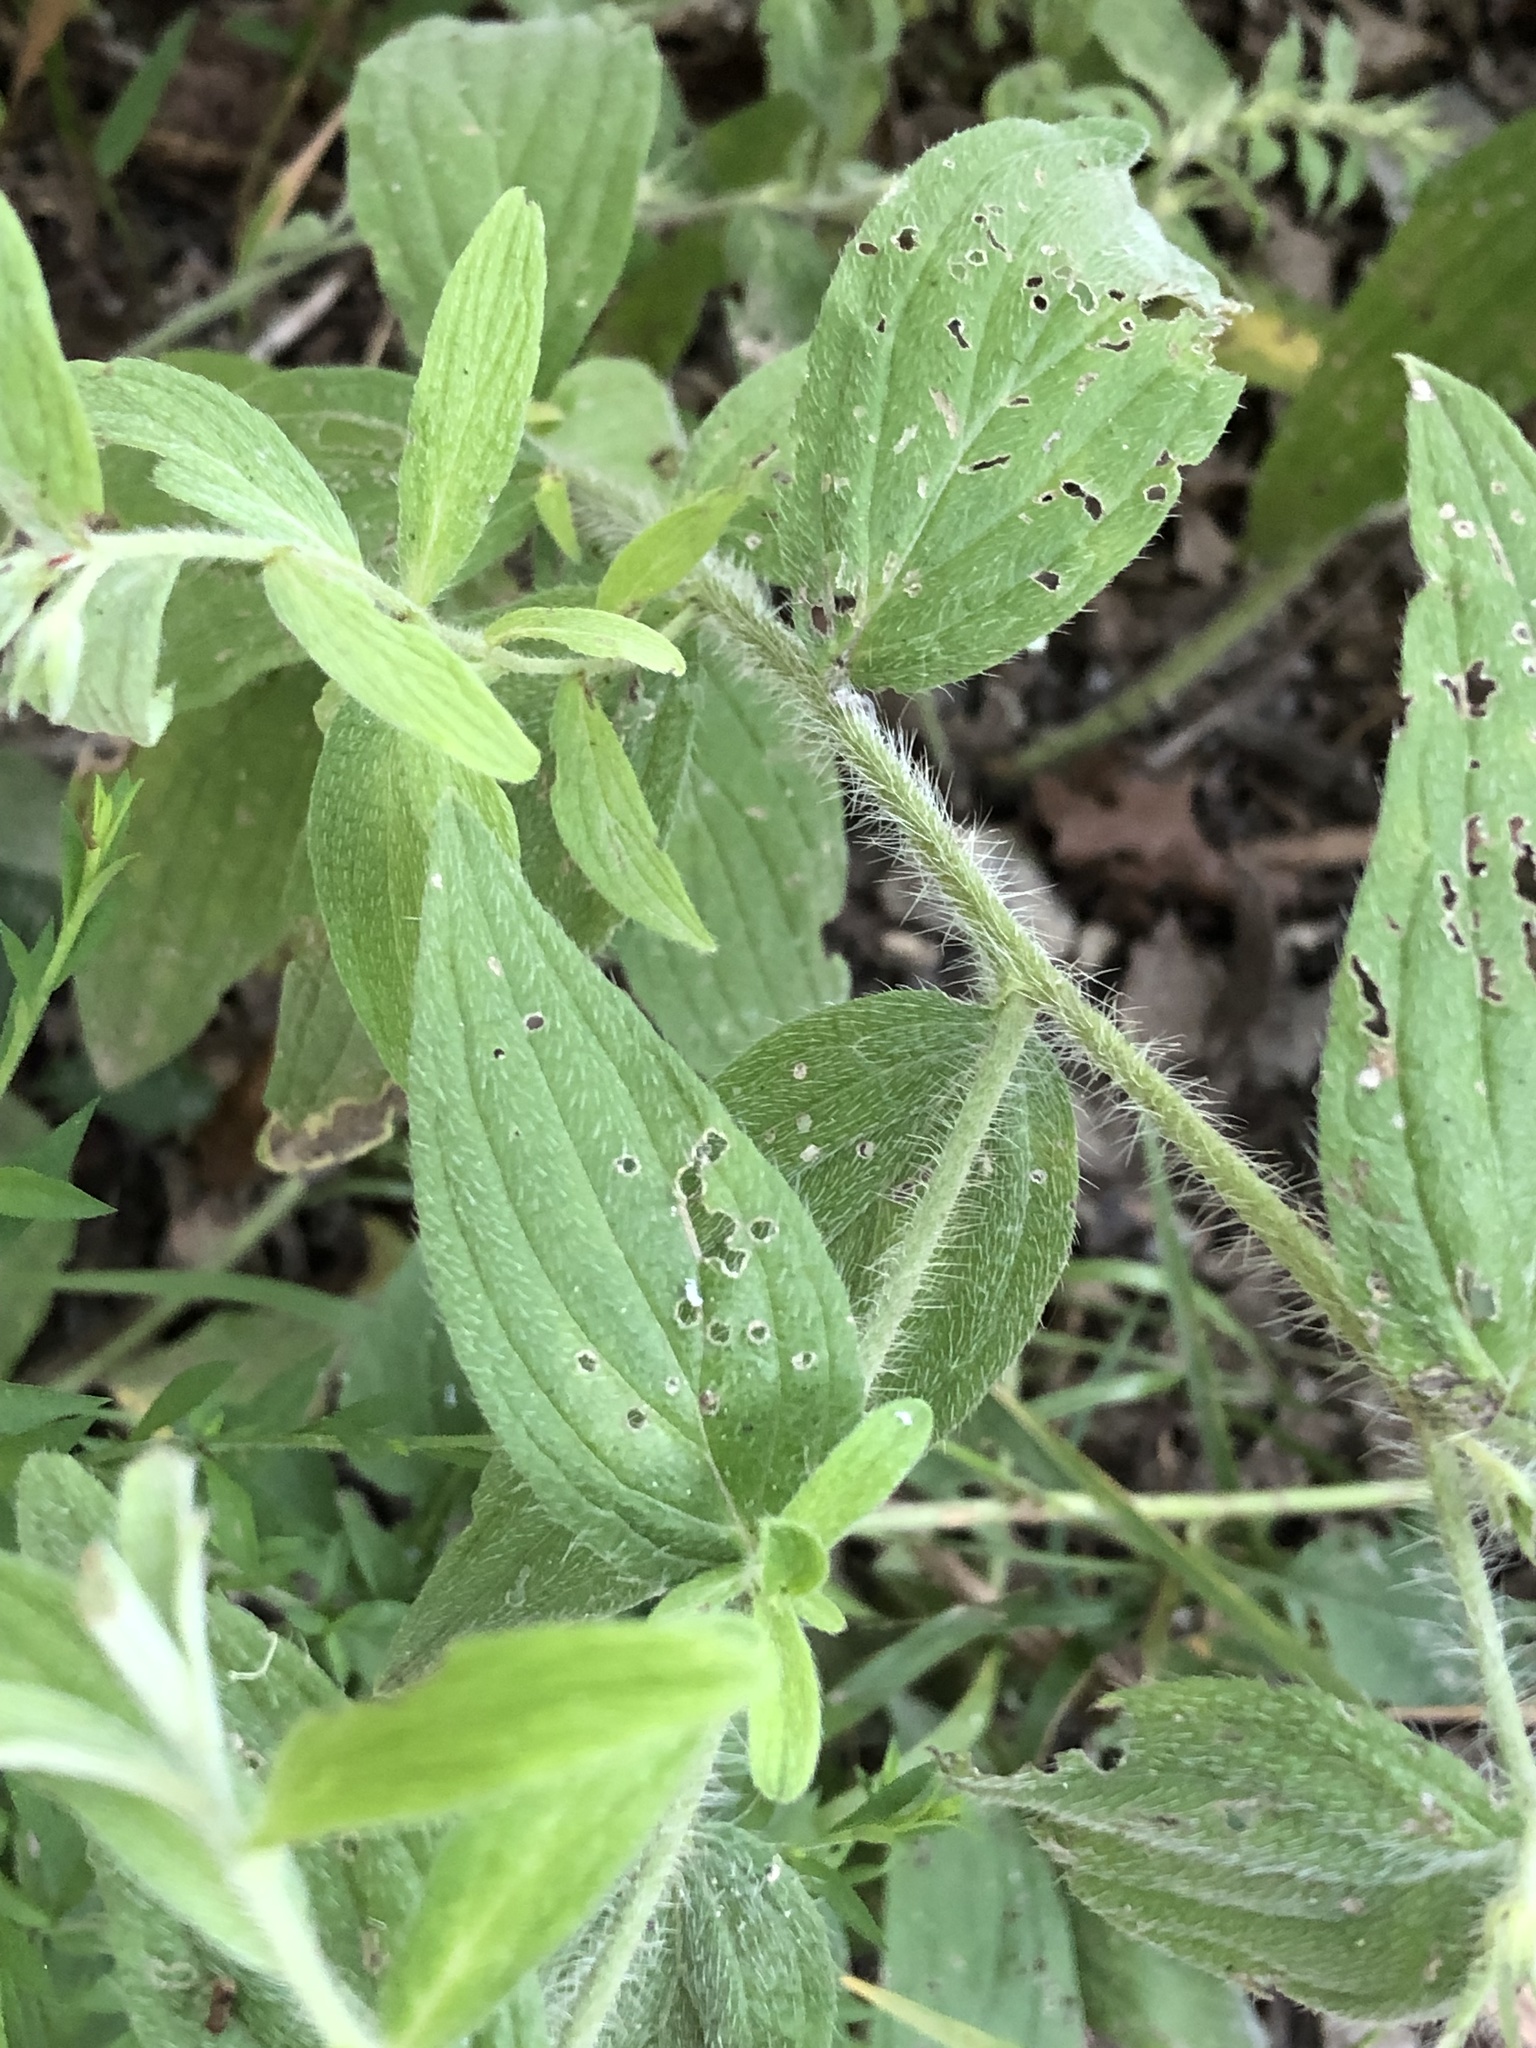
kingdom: Plantae
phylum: Tracheophyta
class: Magnoliopsida
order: Boraginales
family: Boraginaceae
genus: Lithospermum
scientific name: Lithospermum caroliniense
